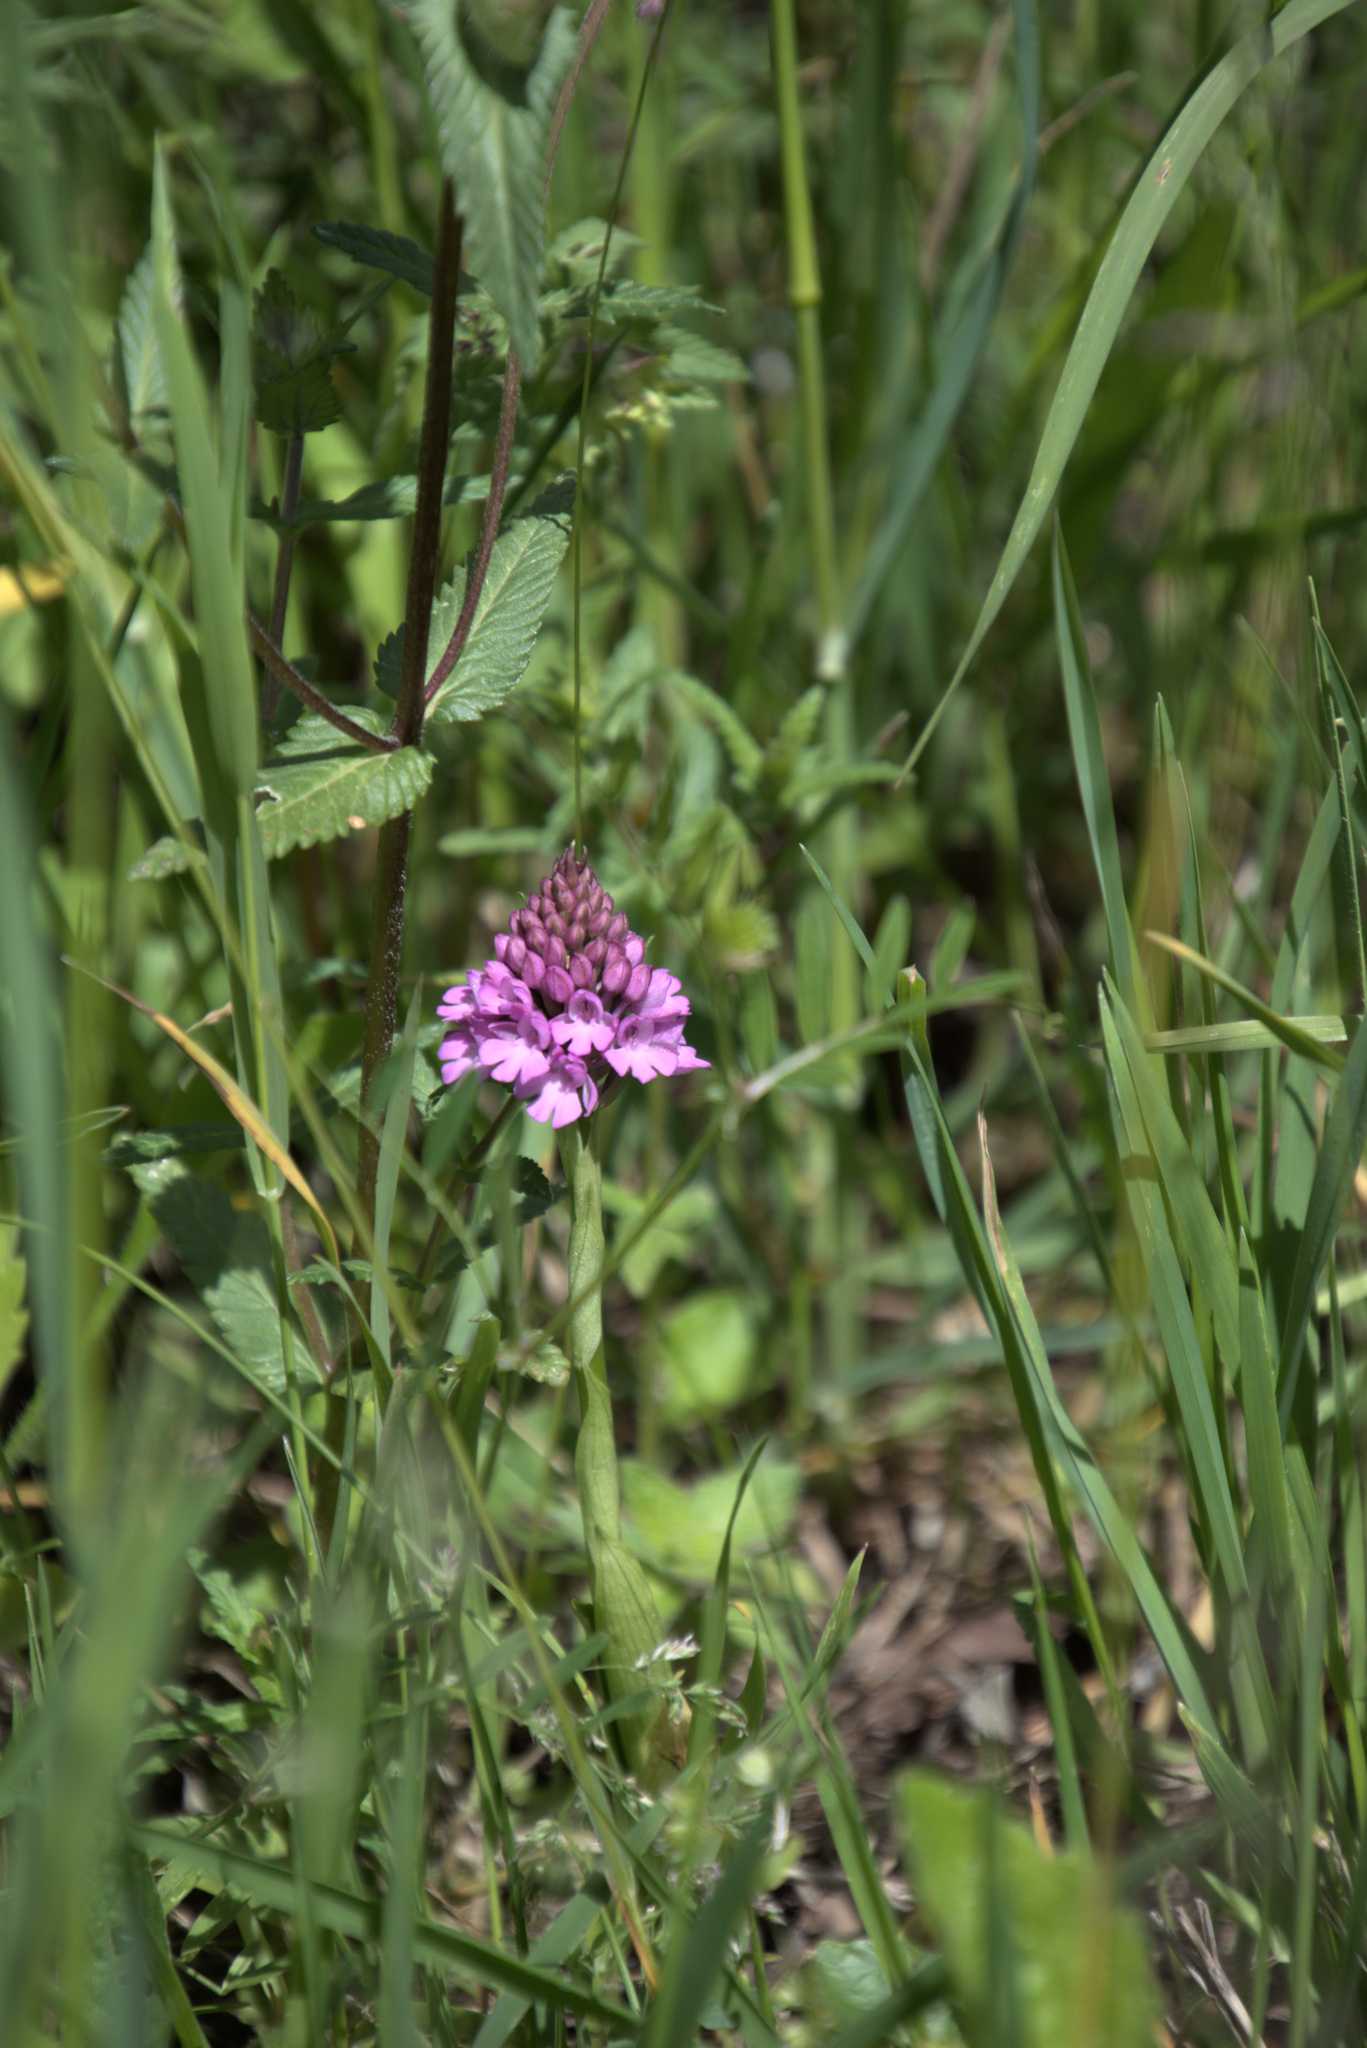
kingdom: Plantae
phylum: Tracheophyta
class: Liliopsida
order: Asparagales
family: Orchidaceae
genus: Anacamptis
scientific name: Anacamptis pyramidalis
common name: Pyramidal orchid
